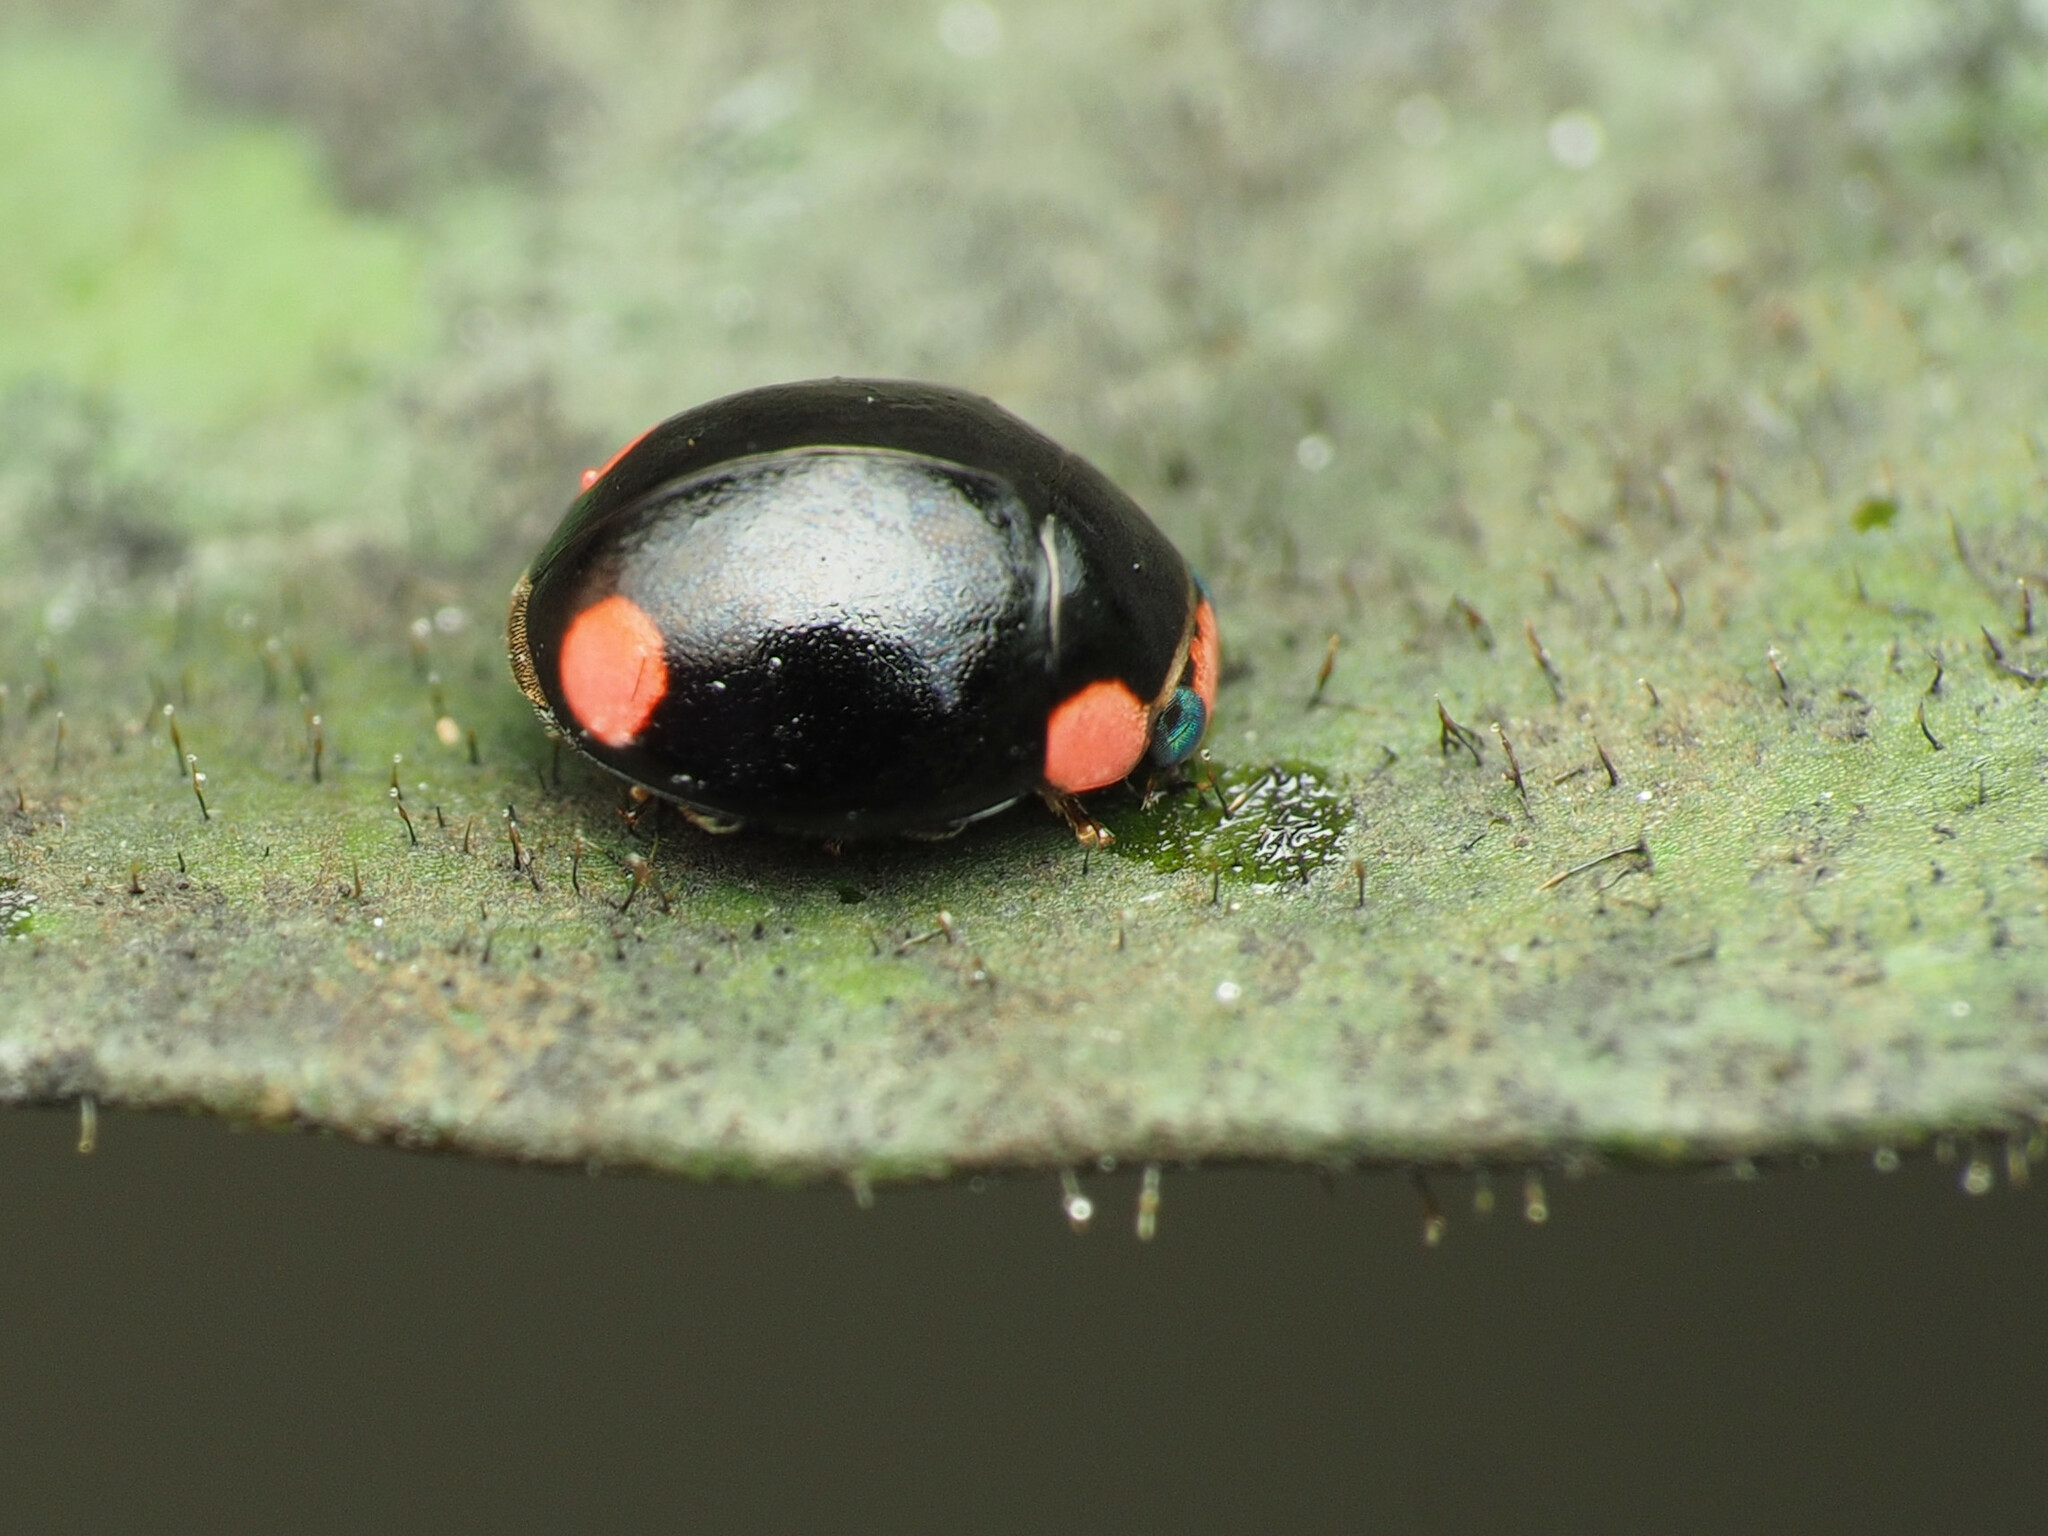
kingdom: Animalia
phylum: Arthropoda
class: Insecta
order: Coleoptera
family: Coccinellidae
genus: Hyperaspis
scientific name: Hyperaspis bigeminata
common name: Bigeminate sigil lady beetle
